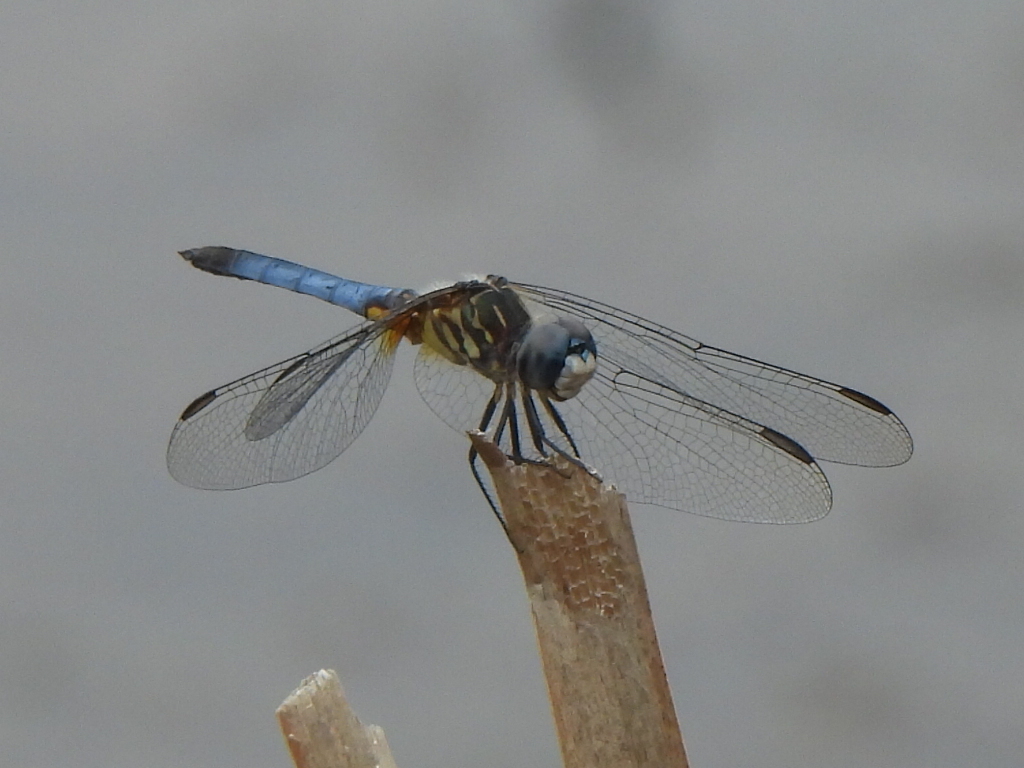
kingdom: Animalia
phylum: Arthropoda
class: Insecta
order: Odonata
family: Libellulidae
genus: Pachydiplax
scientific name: Pachydiplax longipennis
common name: Blue dasher
